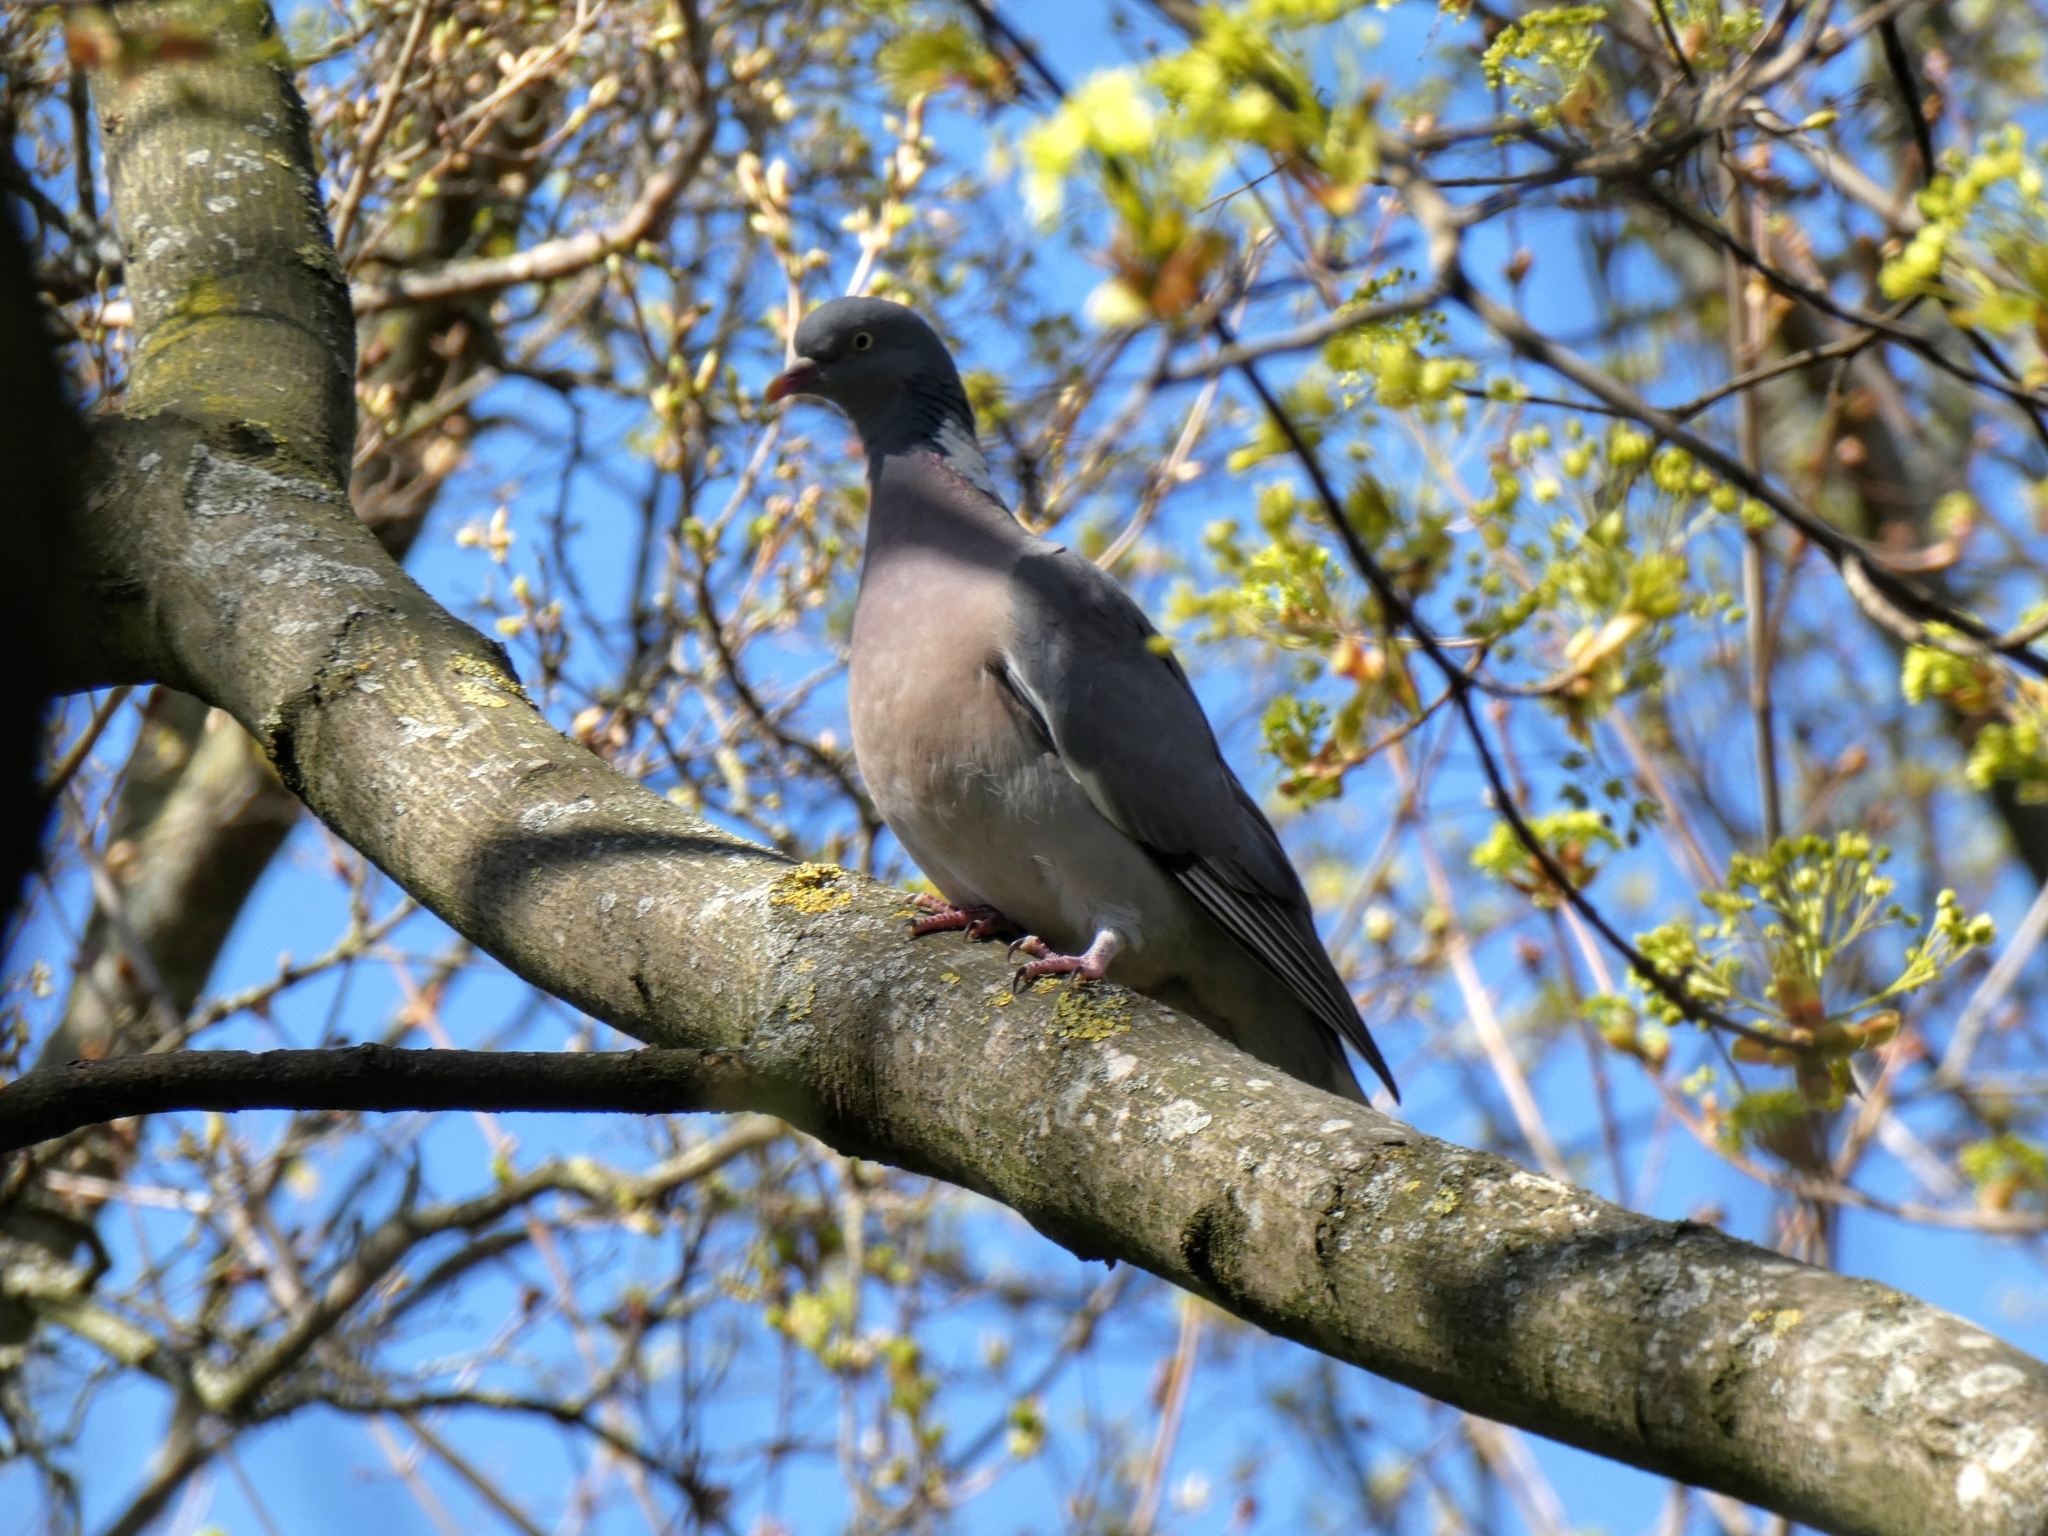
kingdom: Animalia
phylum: Chordata
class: Aves
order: Columbiformes
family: Columbidae
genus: Columba
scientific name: Columba palumbus
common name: Common wood pigeon
